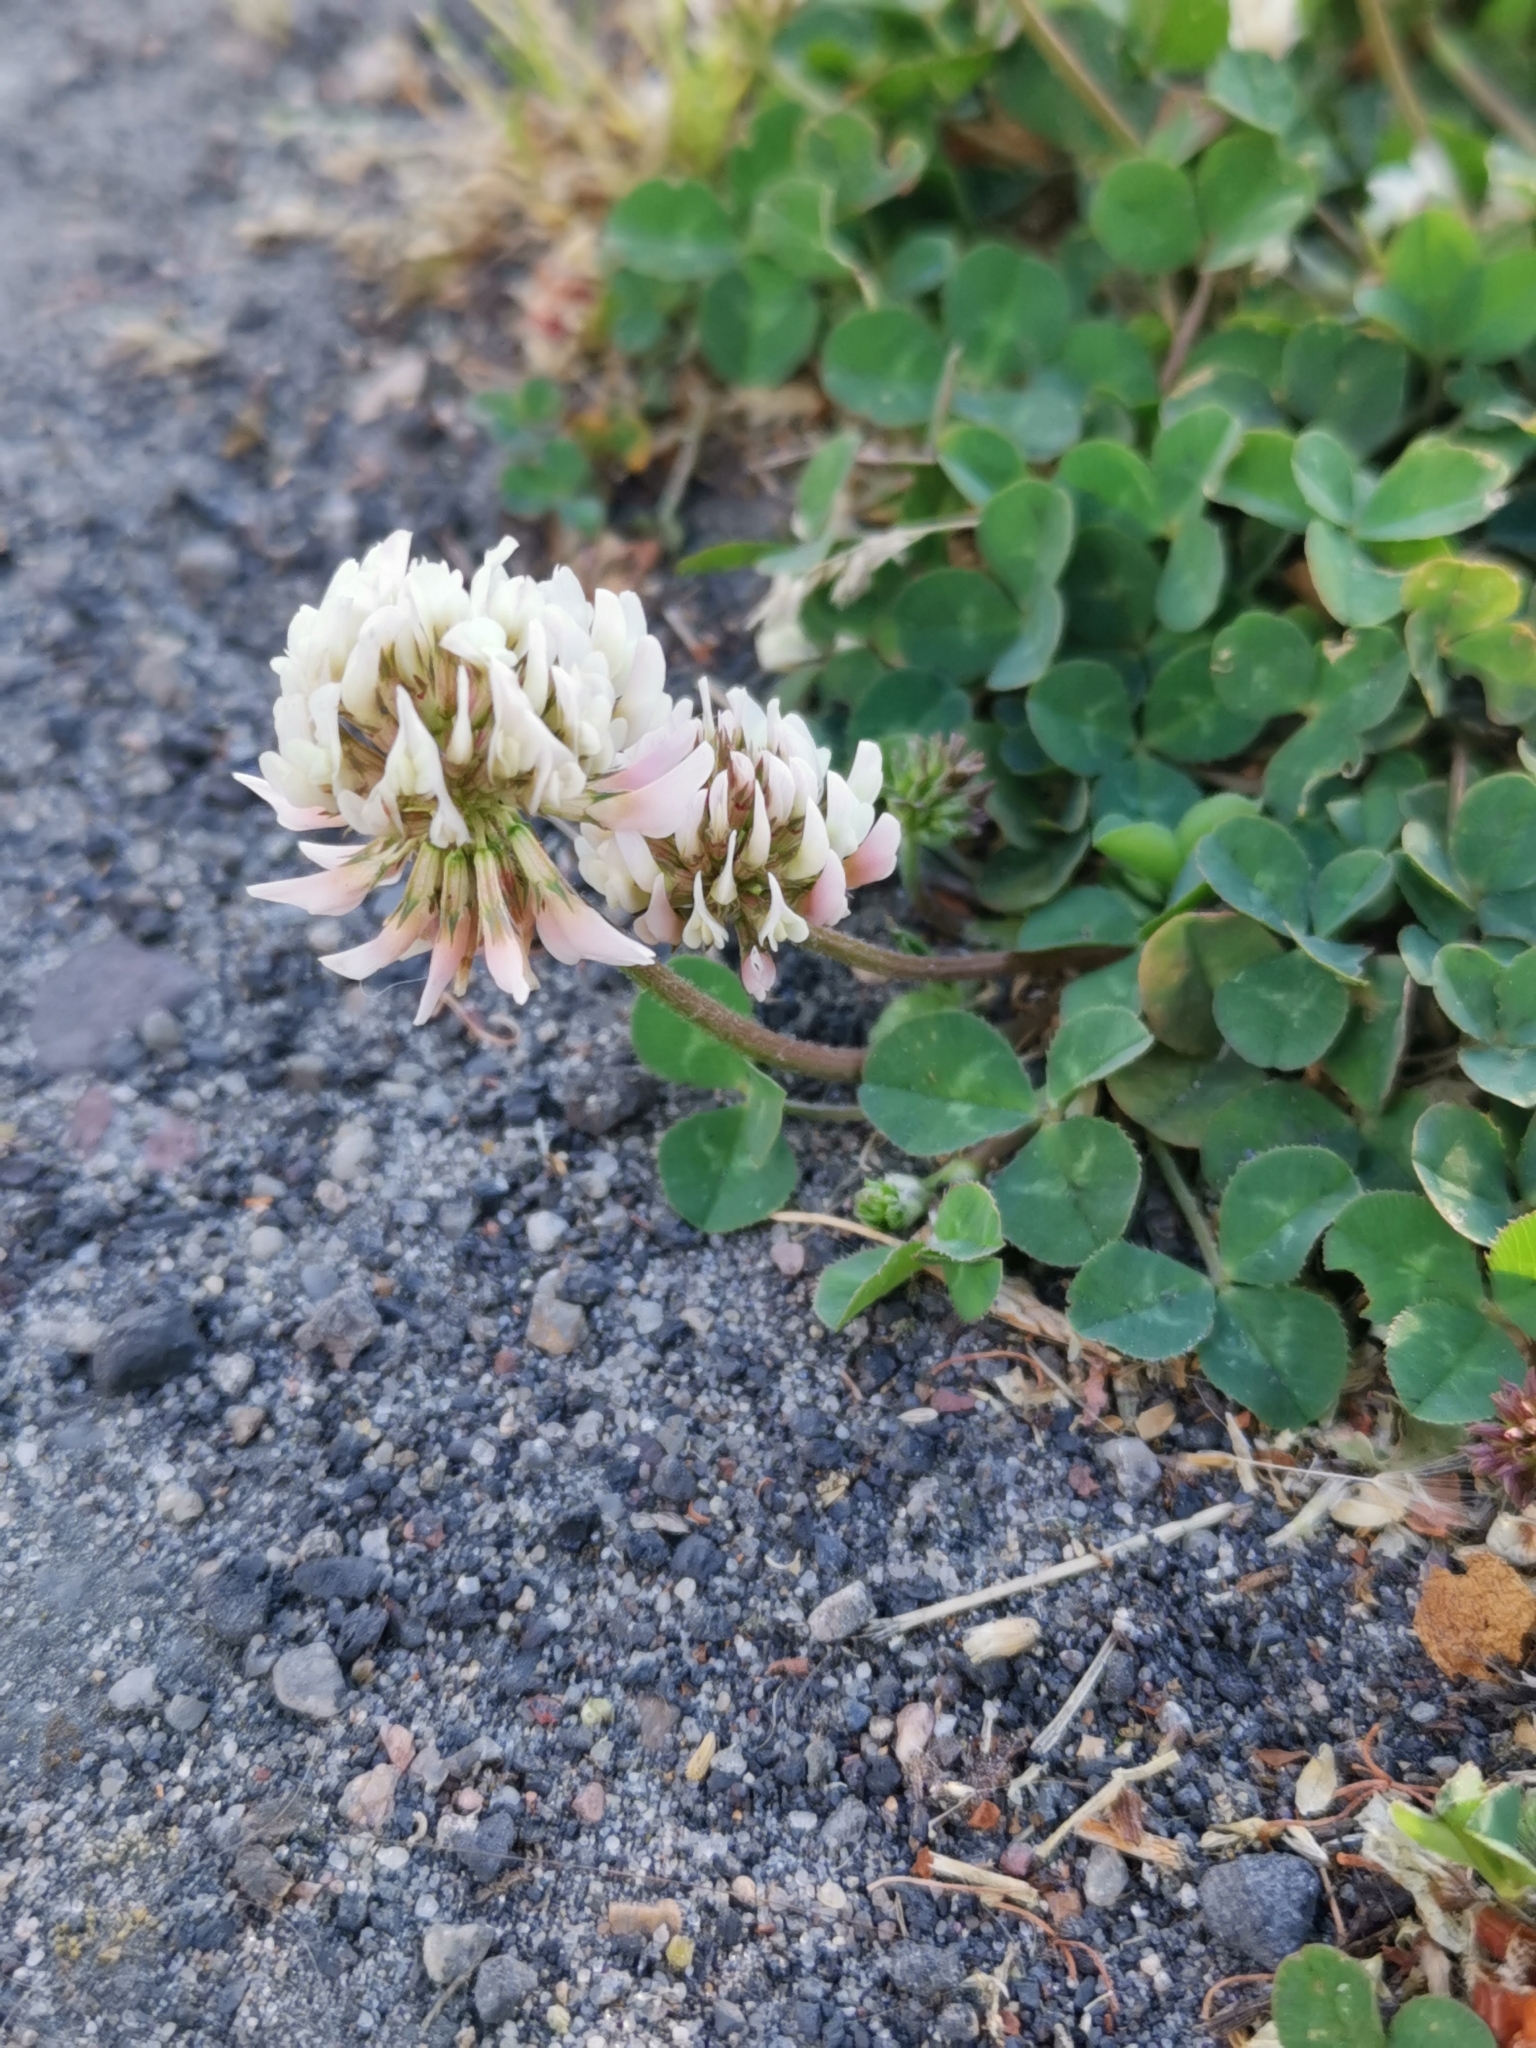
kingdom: Plantae
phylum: Tracheophyta
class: Magnoliopsida
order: Fabales
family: Fabaceae
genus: Trifolium
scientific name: Trifolium repens
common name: White clover
